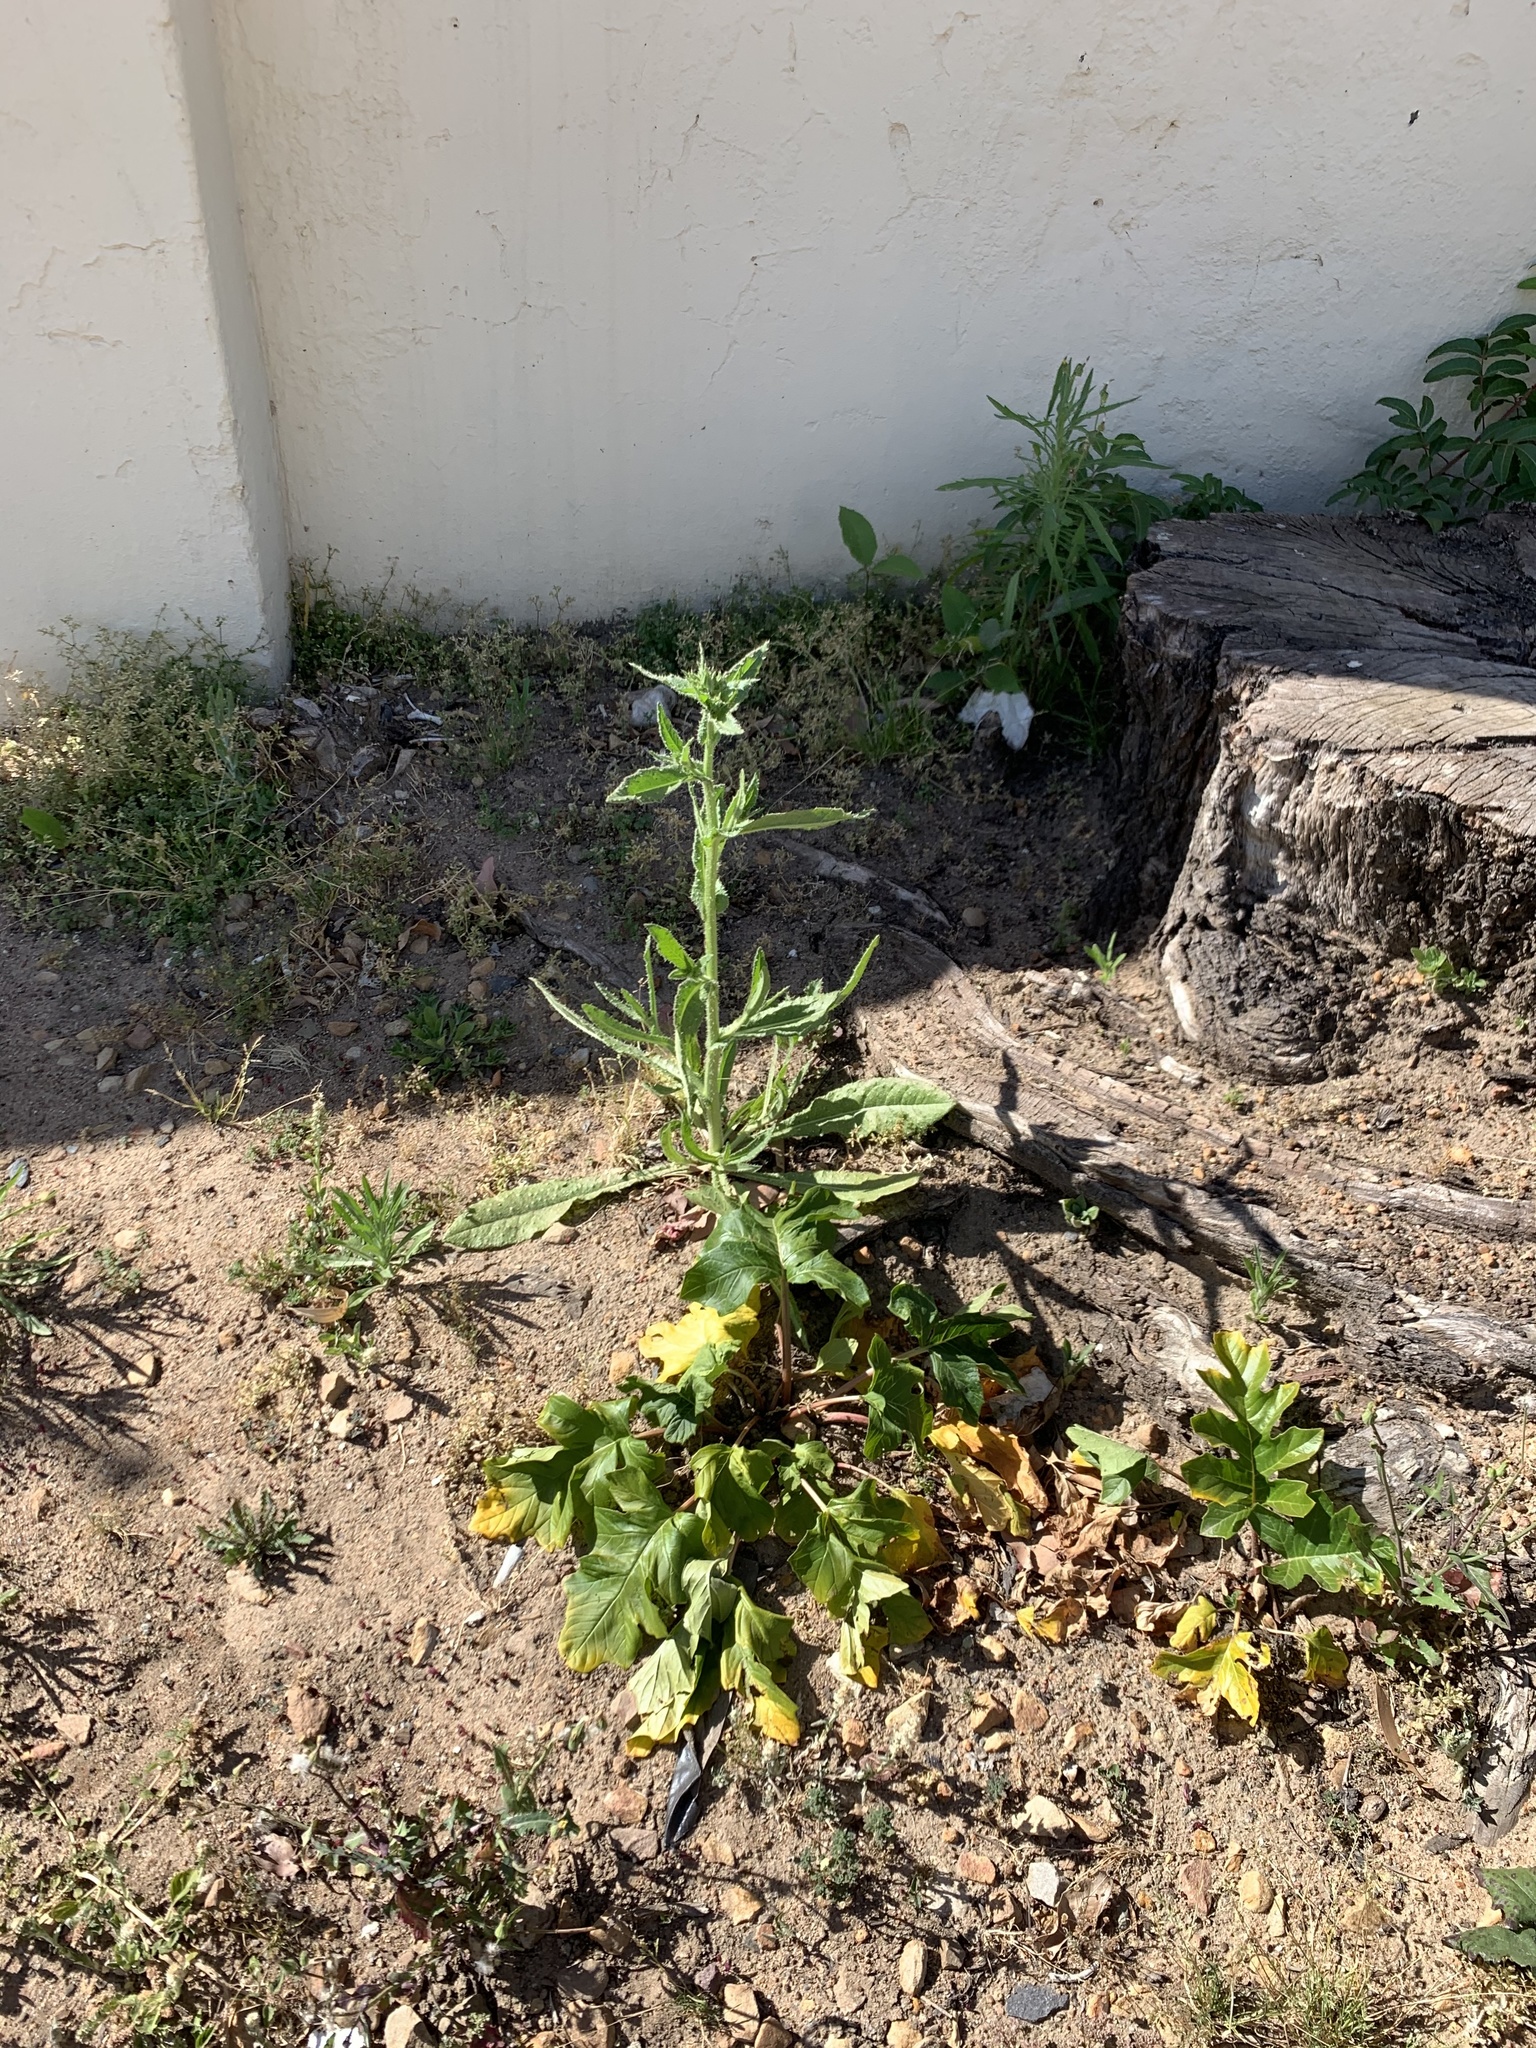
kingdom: Plantae
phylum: Tracheophyta
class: Magnoliopsida
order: Asterales
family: Asteraceae
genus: Helminthotheca
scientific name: Helminthotheca echioides
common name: Ox-tongue
